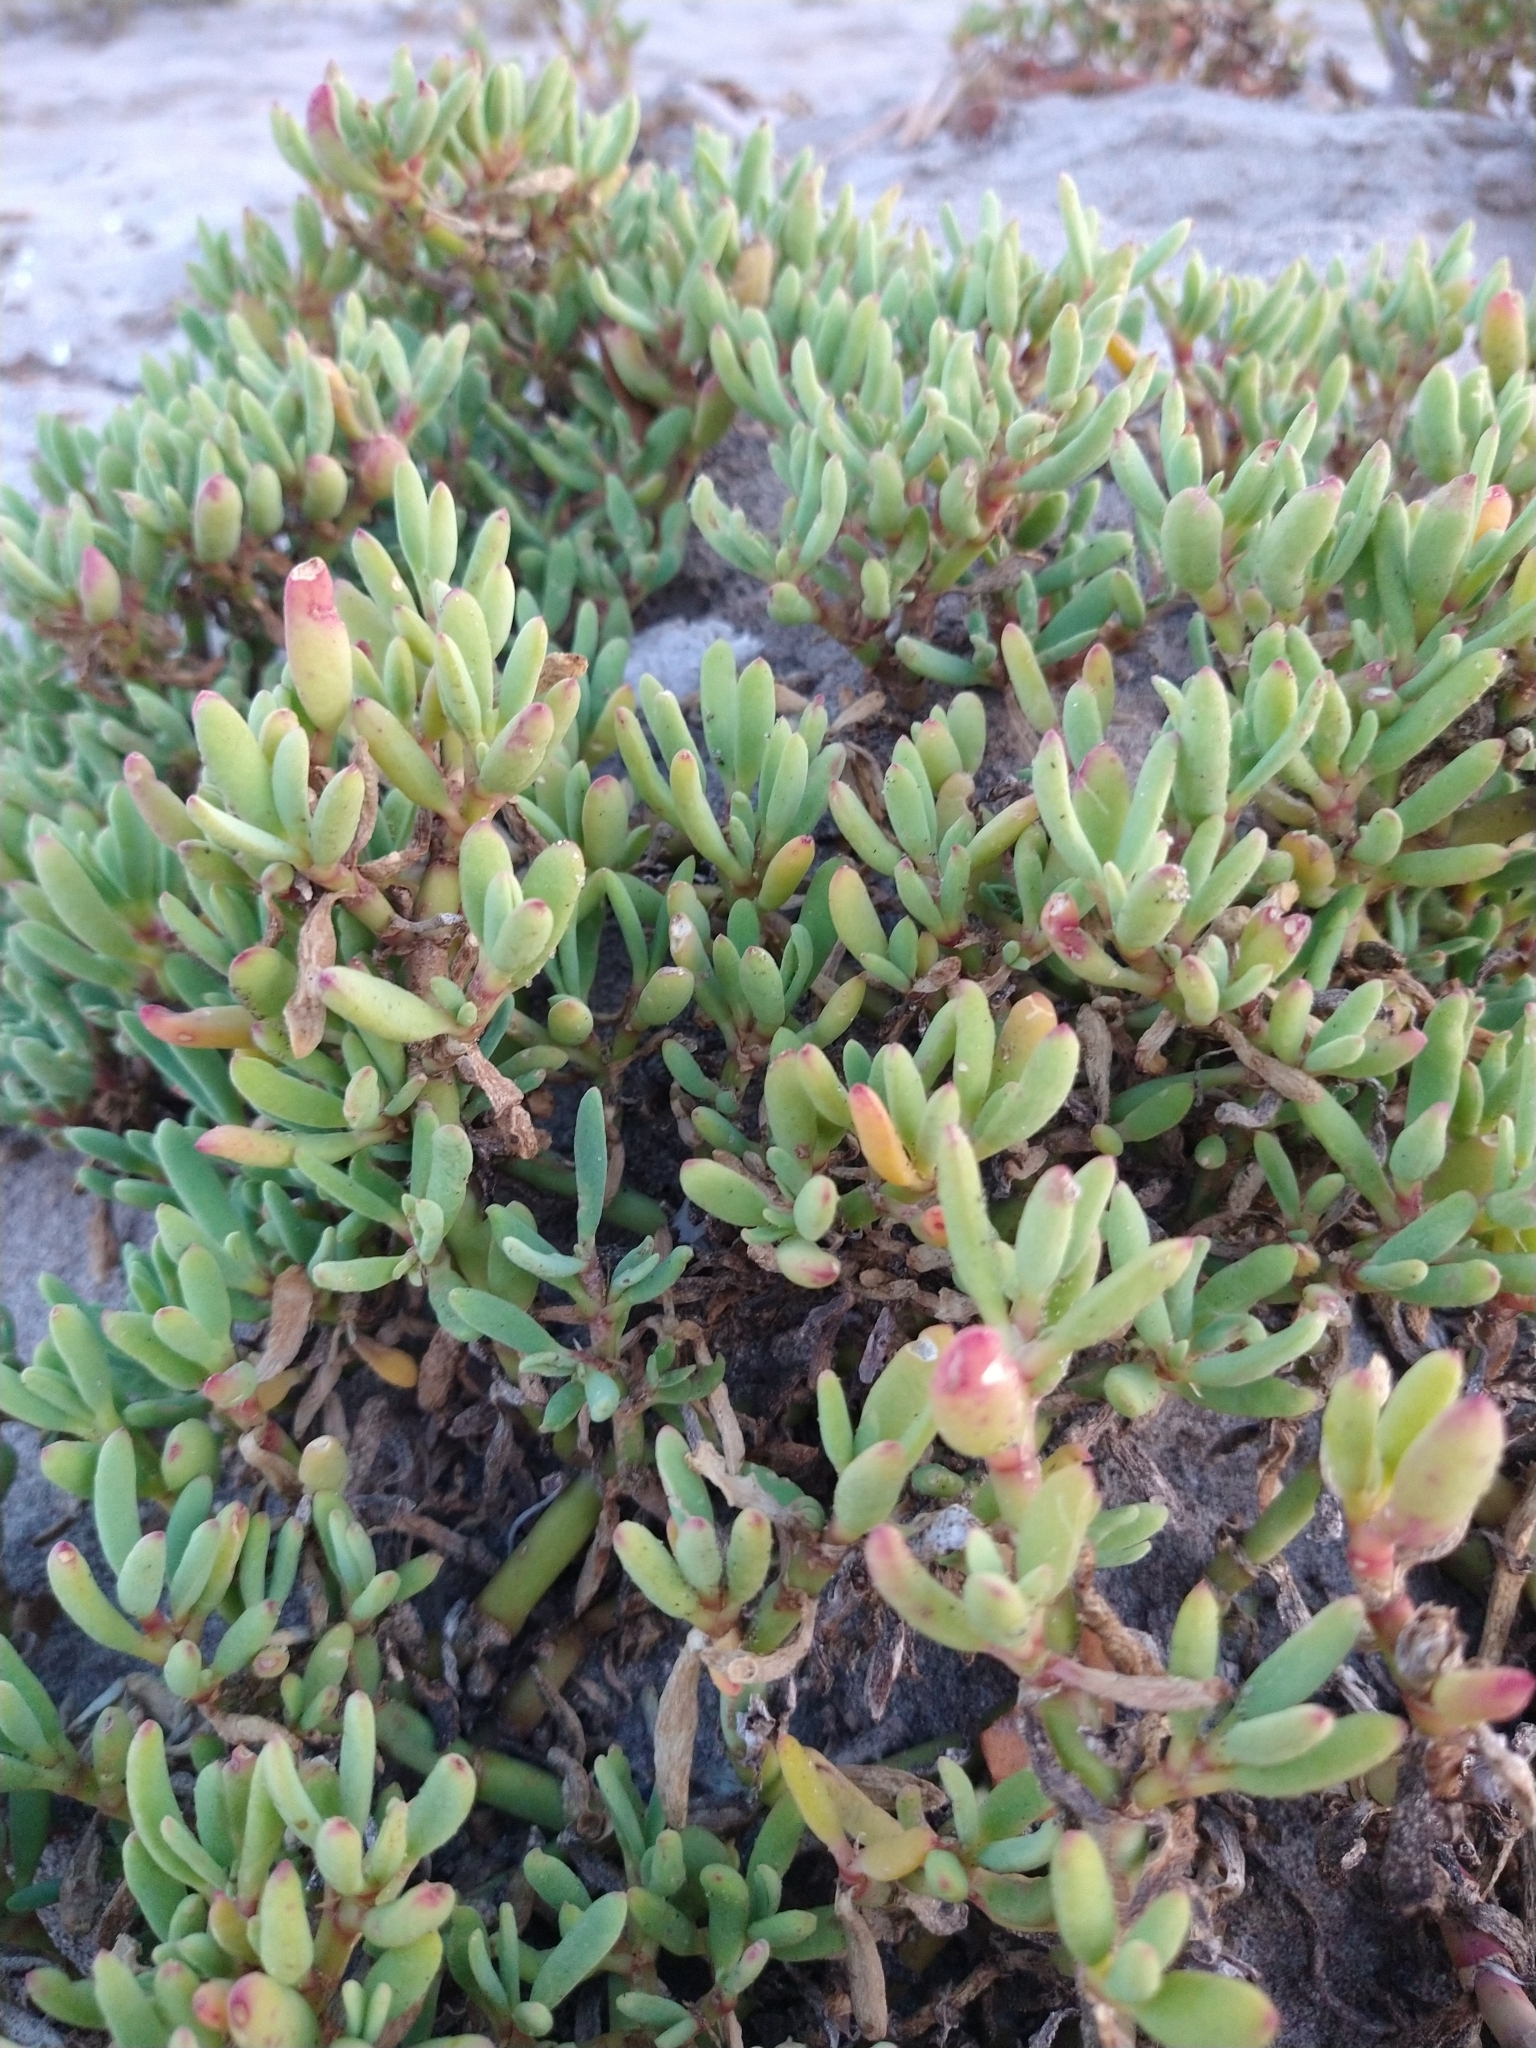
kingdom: Plantae
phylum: Tracheophyta
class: Magnoliopsida
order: Caryophyllales
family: Aizoaceae
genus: Sesuvium
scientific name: Sesuvium portulacastrum
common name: Sea-purslane
